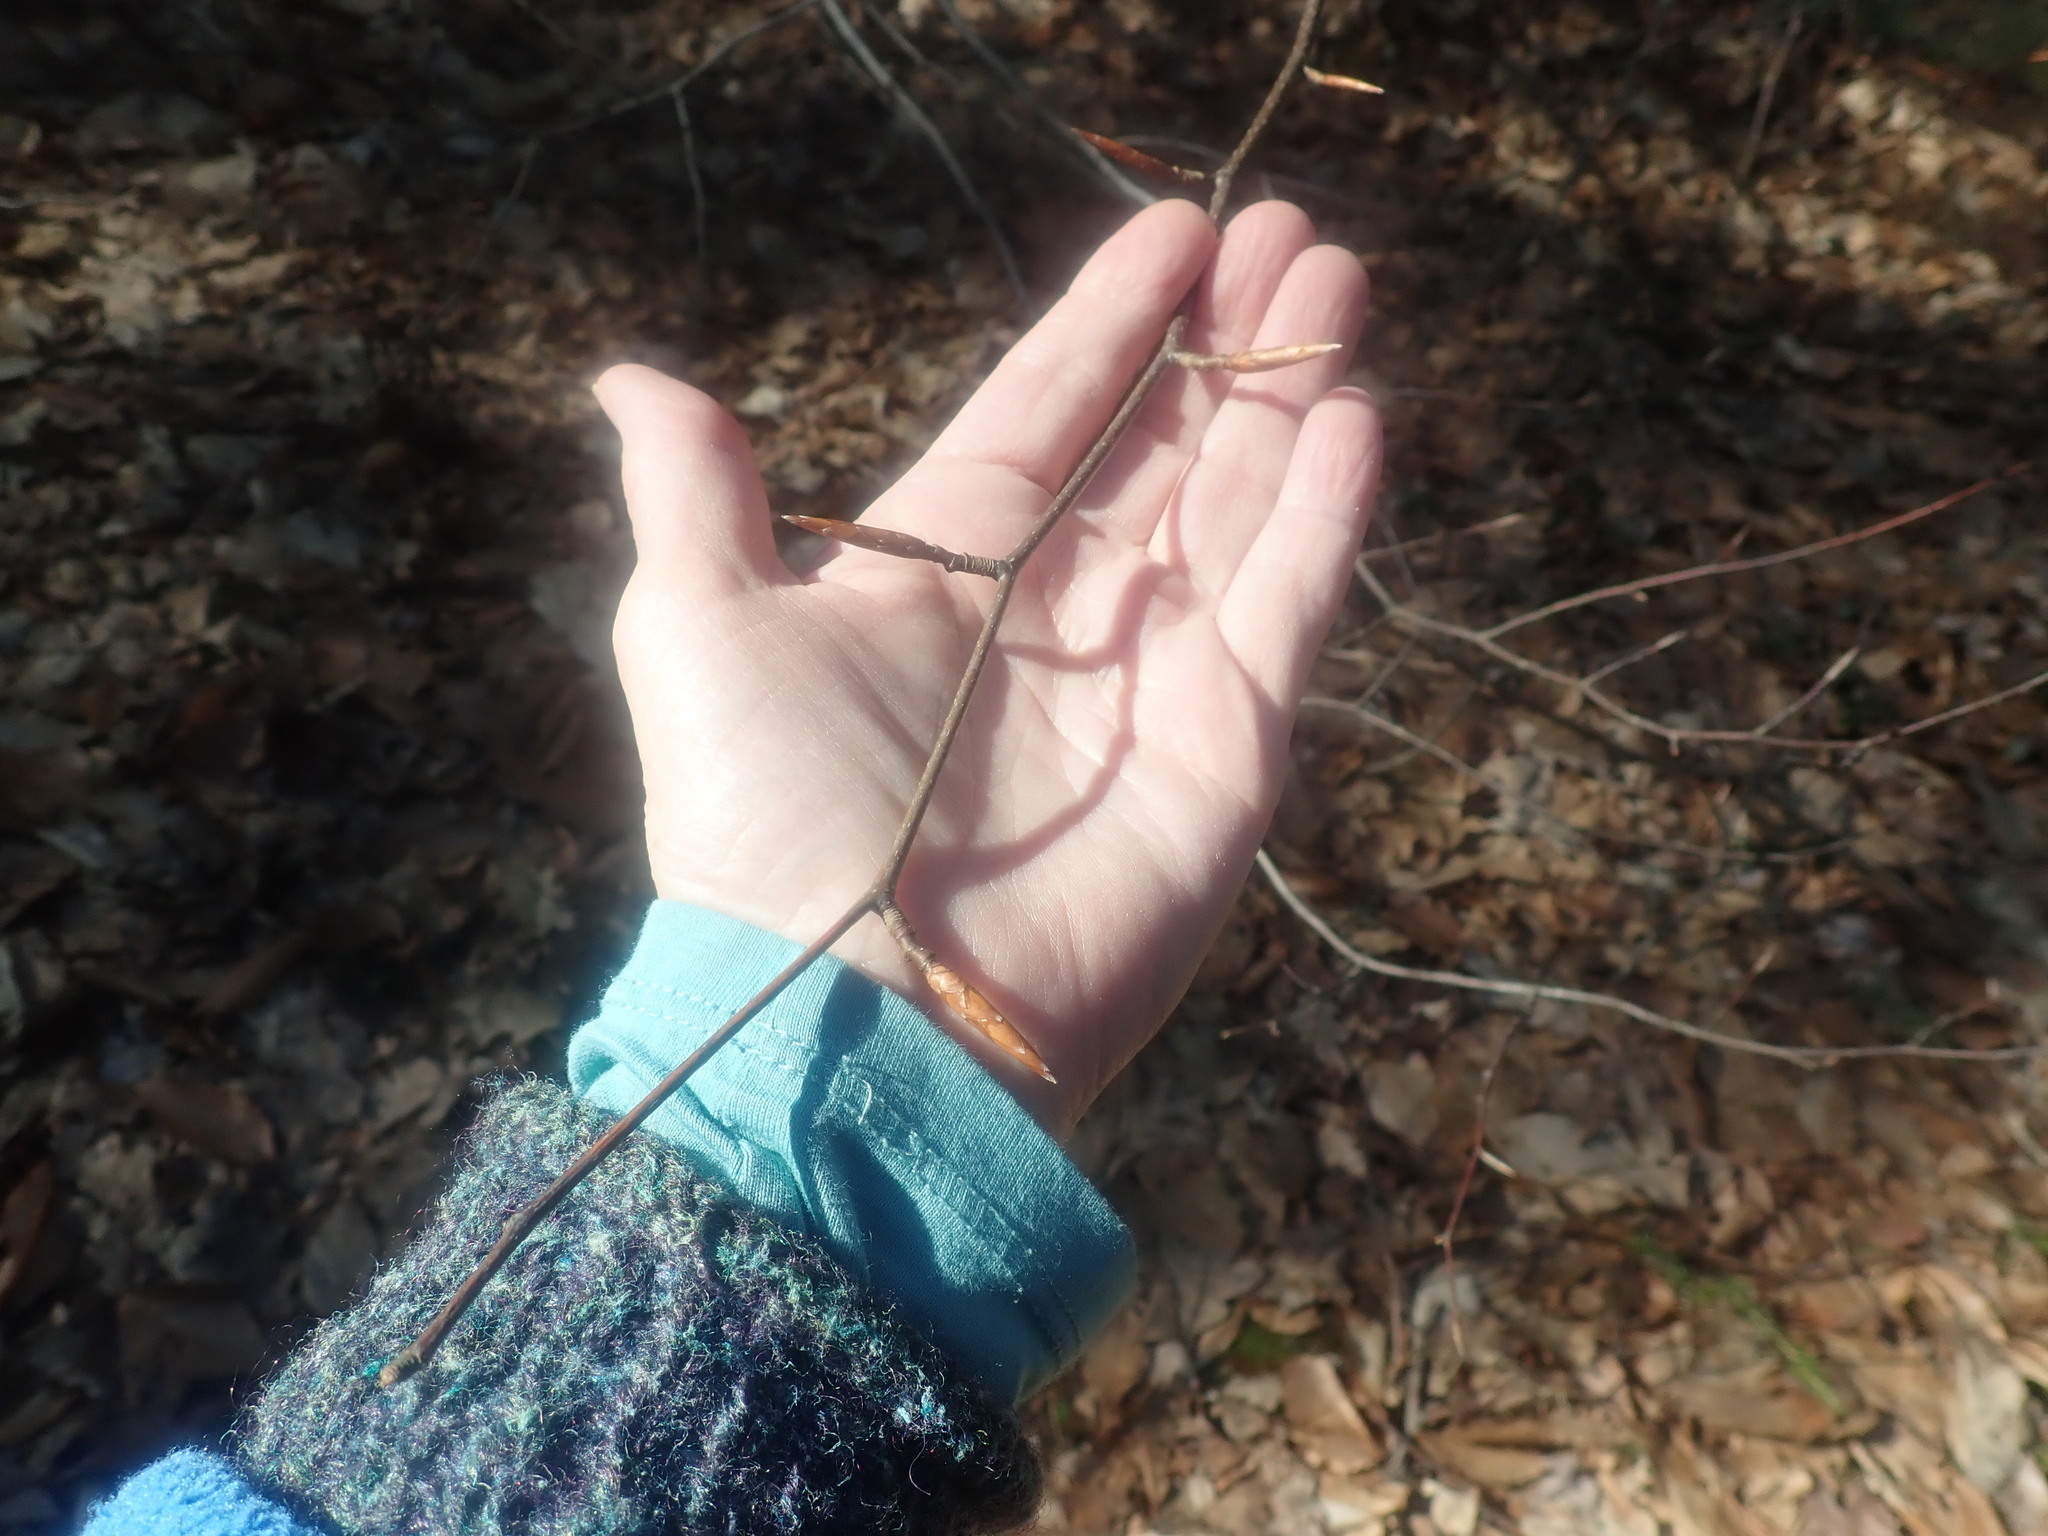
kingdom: Plantae
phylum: Tracheophyta
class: Magnoliopsida
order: Fagales
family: Fagaceae
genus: Fagus
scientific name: Fagus grandifolia
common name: American beech
